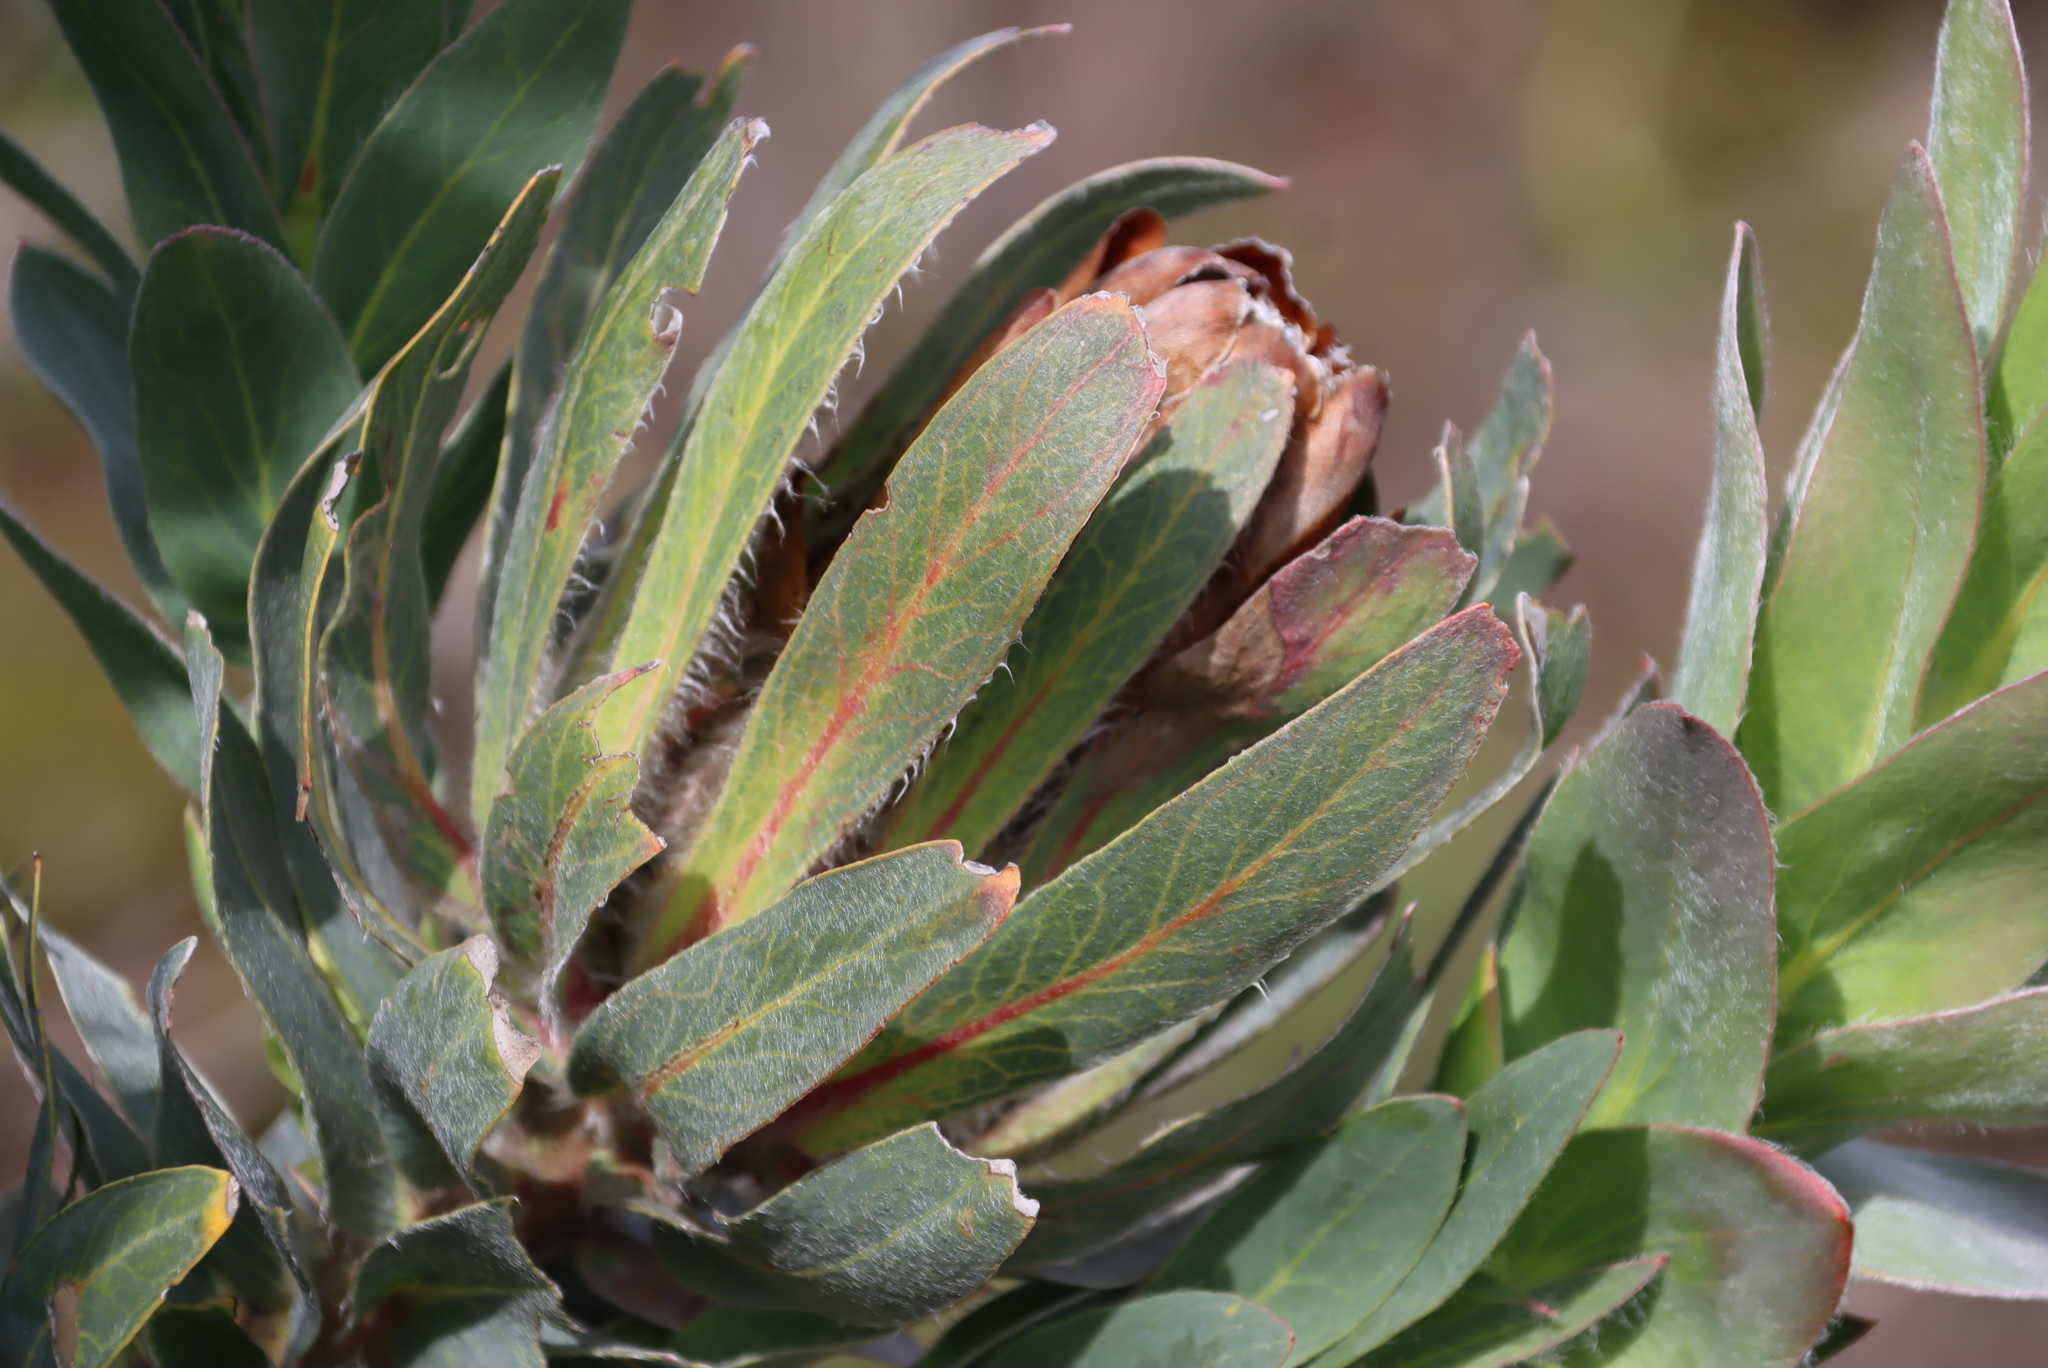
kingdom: Plantae
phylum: Tracheophyta
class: Magnoliopsida
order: Proteales
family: Proteaceae
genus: Protea
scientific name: Protea coronata
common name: Green sugarbush
